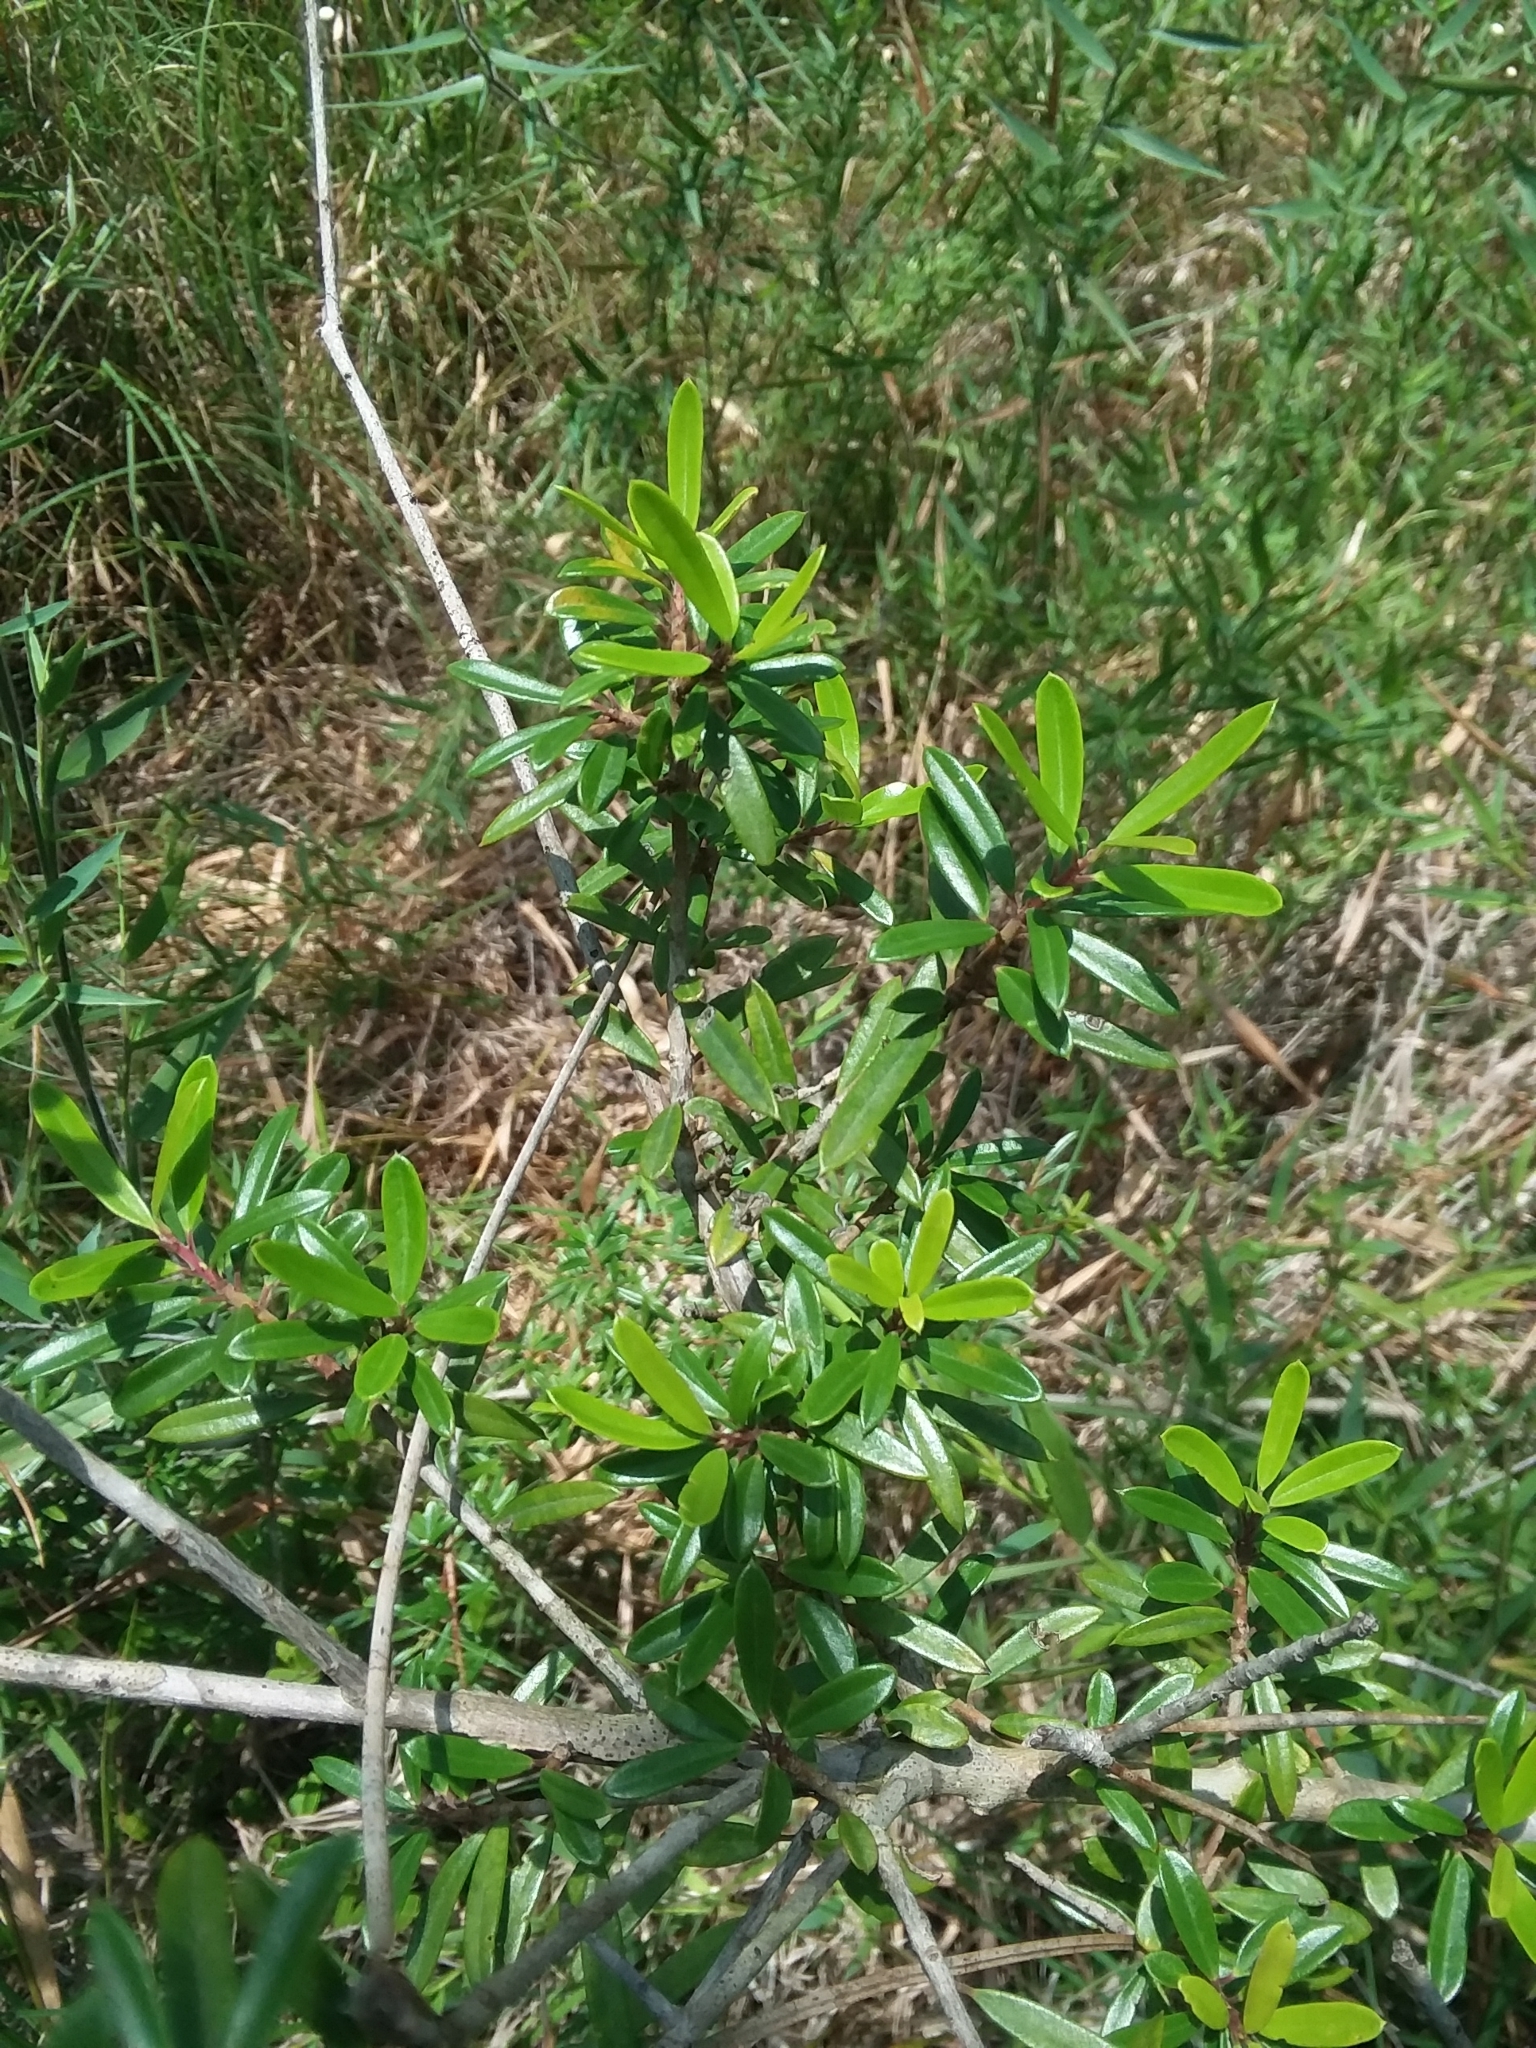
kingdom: Plantae
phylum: Tracheophyta
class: Magnoliopsida
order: Aquifoliales
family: Aquifoliaceae
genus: Ilex
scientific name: Ilex myrtifolia
